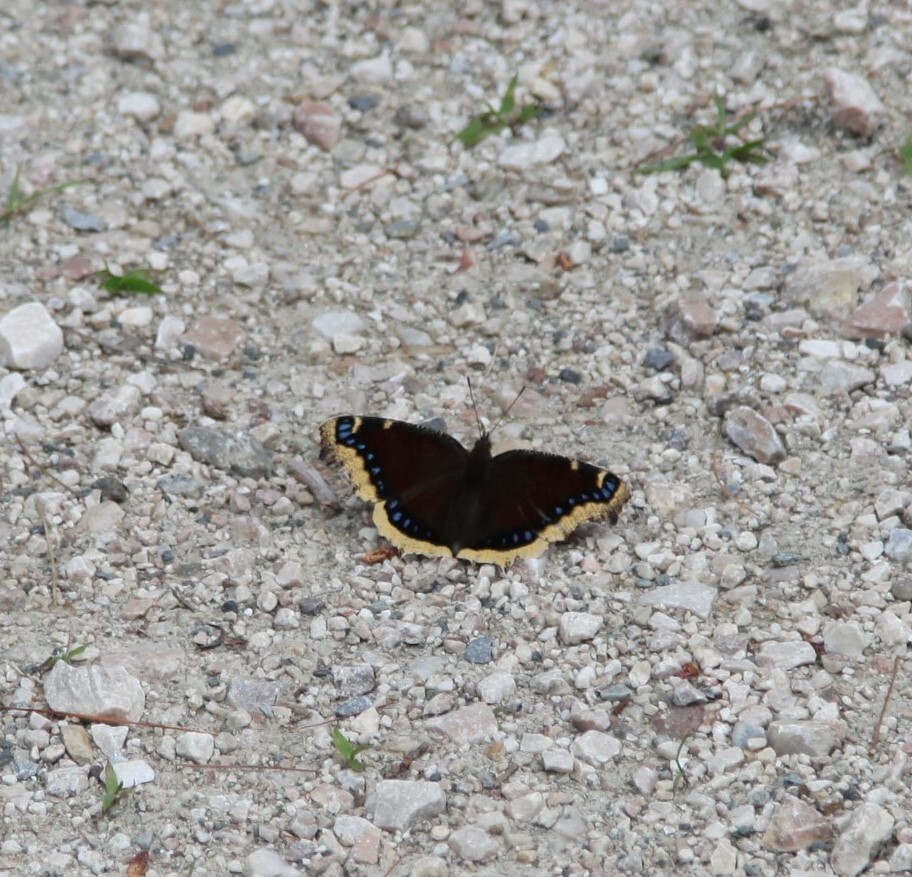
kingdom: Animalia
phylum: Arthropoda
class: Insecta
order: Lepidoptera
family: Nymphalidae
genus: Nymphalis
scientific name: Nymphalis antiopa
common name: Camberwell beauty
